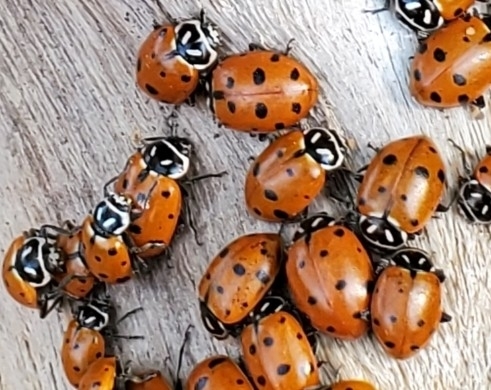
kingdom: Animalia
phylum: Arthropoda
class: Insecta
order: Coleoptera
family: Coccinellidae
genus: Hippodamia
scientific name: Hippodamia convergens
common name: Convergent lady beetle
